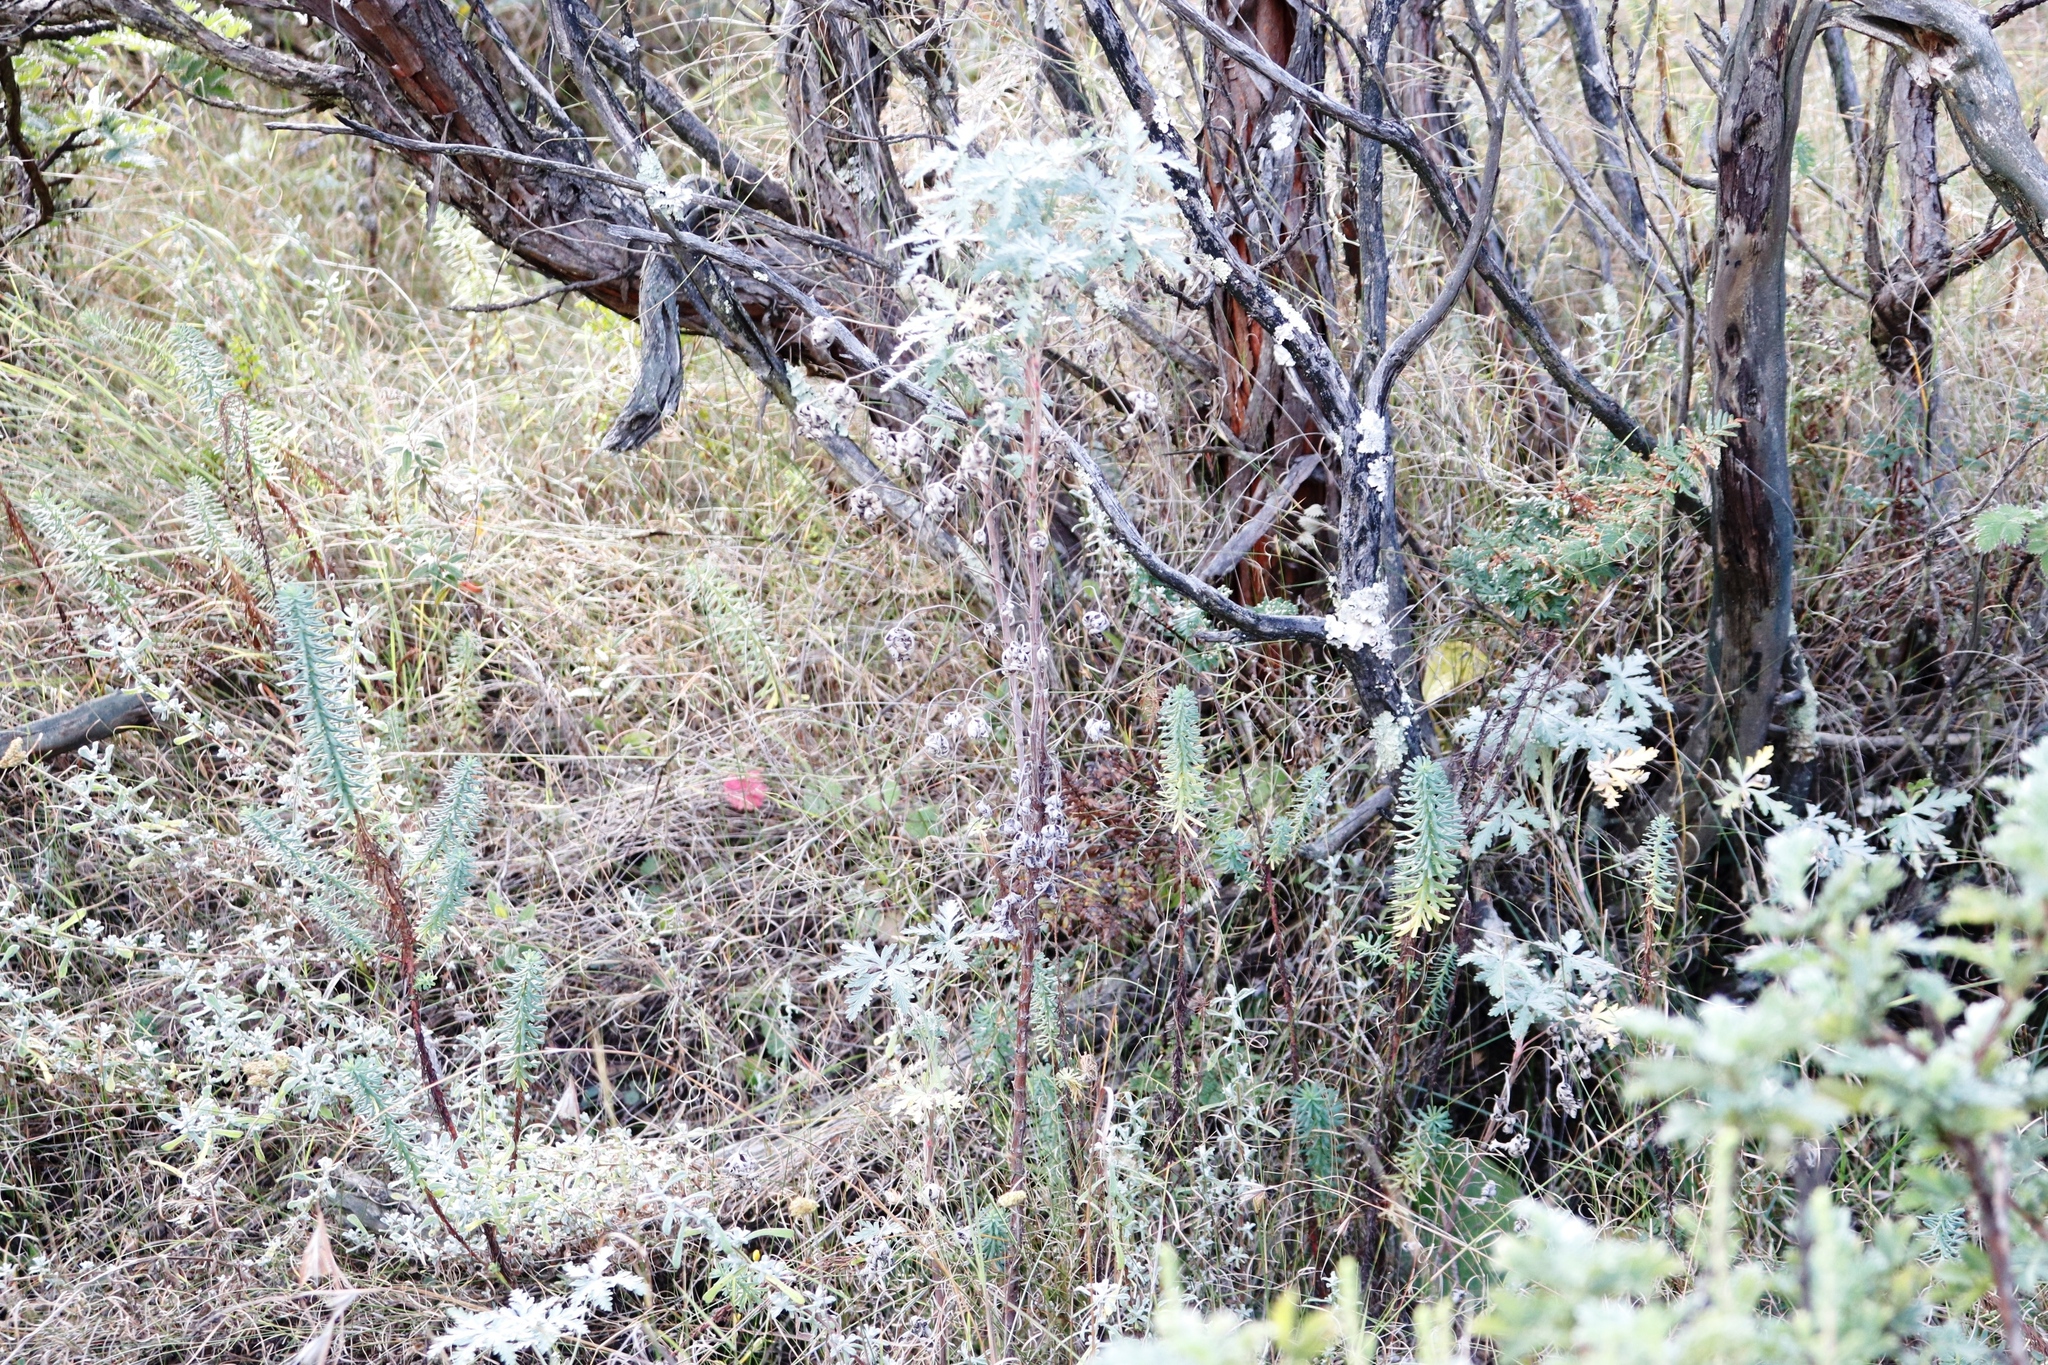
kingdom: Plantae
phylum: Tracheophyta
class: Magnoliopsida
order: Asterales
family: Asteraceae
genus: Heteromma
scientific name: Heteromma decurrens
